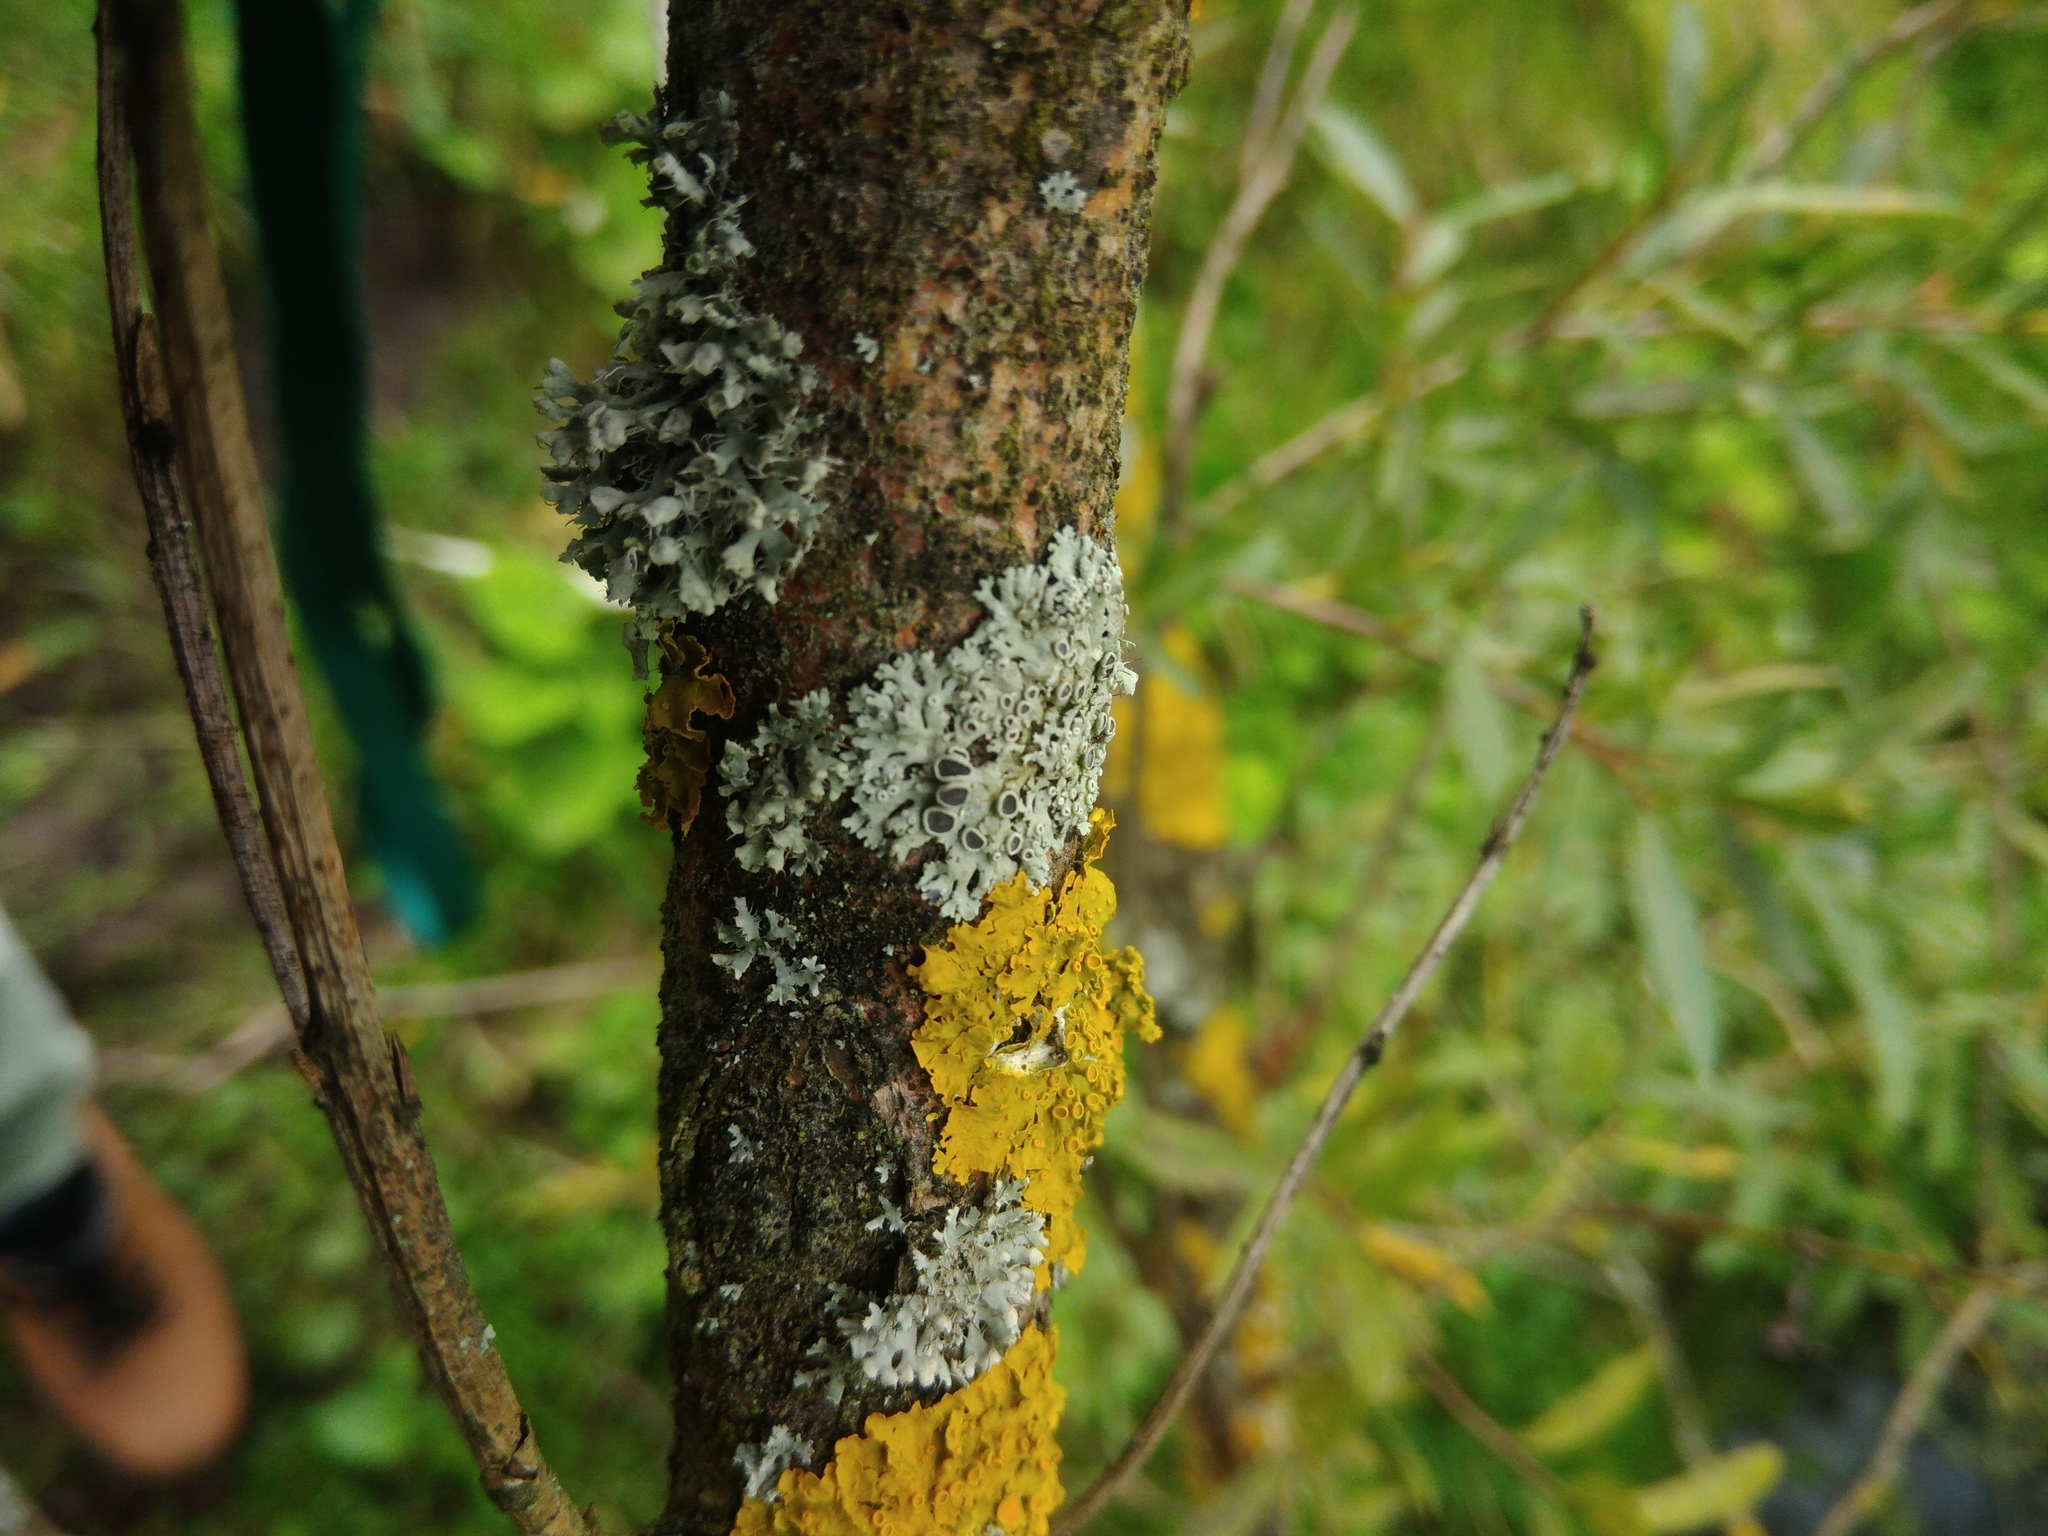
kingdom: Fungi
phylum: Ascomycota
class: Lecanoromycetes
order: Caliciales
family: Physciaceae
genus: Physcia
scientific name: Physcia stellaris
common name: Star rosette lichen
